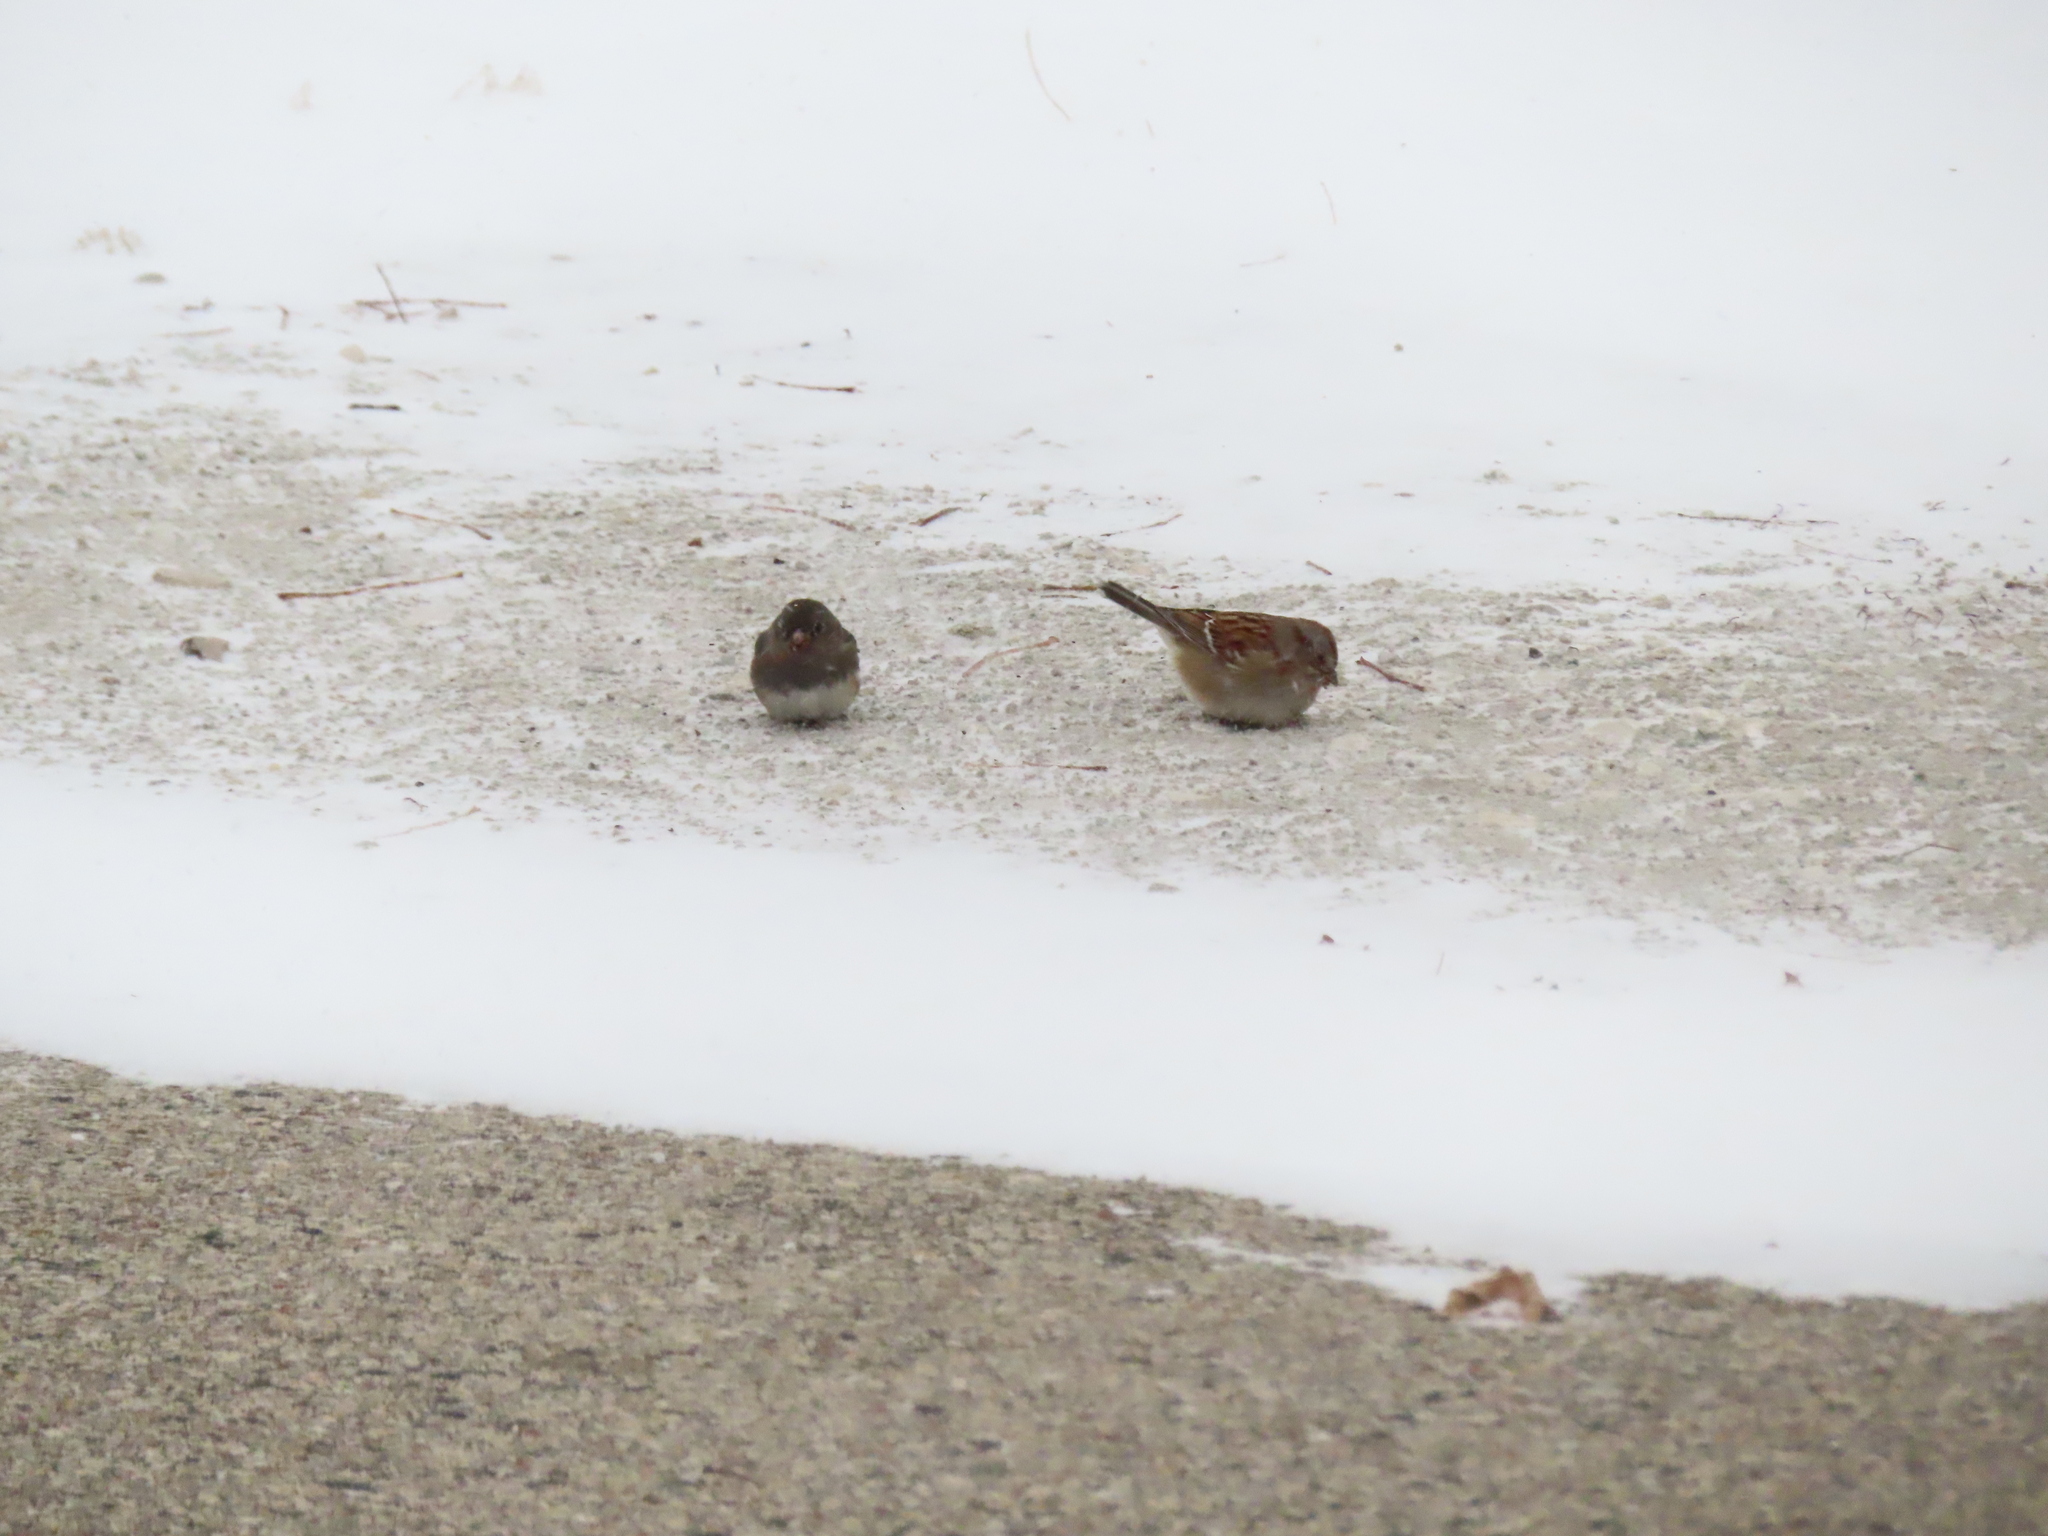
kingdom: Animalia
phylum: Chordata
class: Aves
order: Passeriformes
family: Passerellidae
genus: Spizelloides
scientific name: Spizelloides arborea
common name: American tree sparrow
